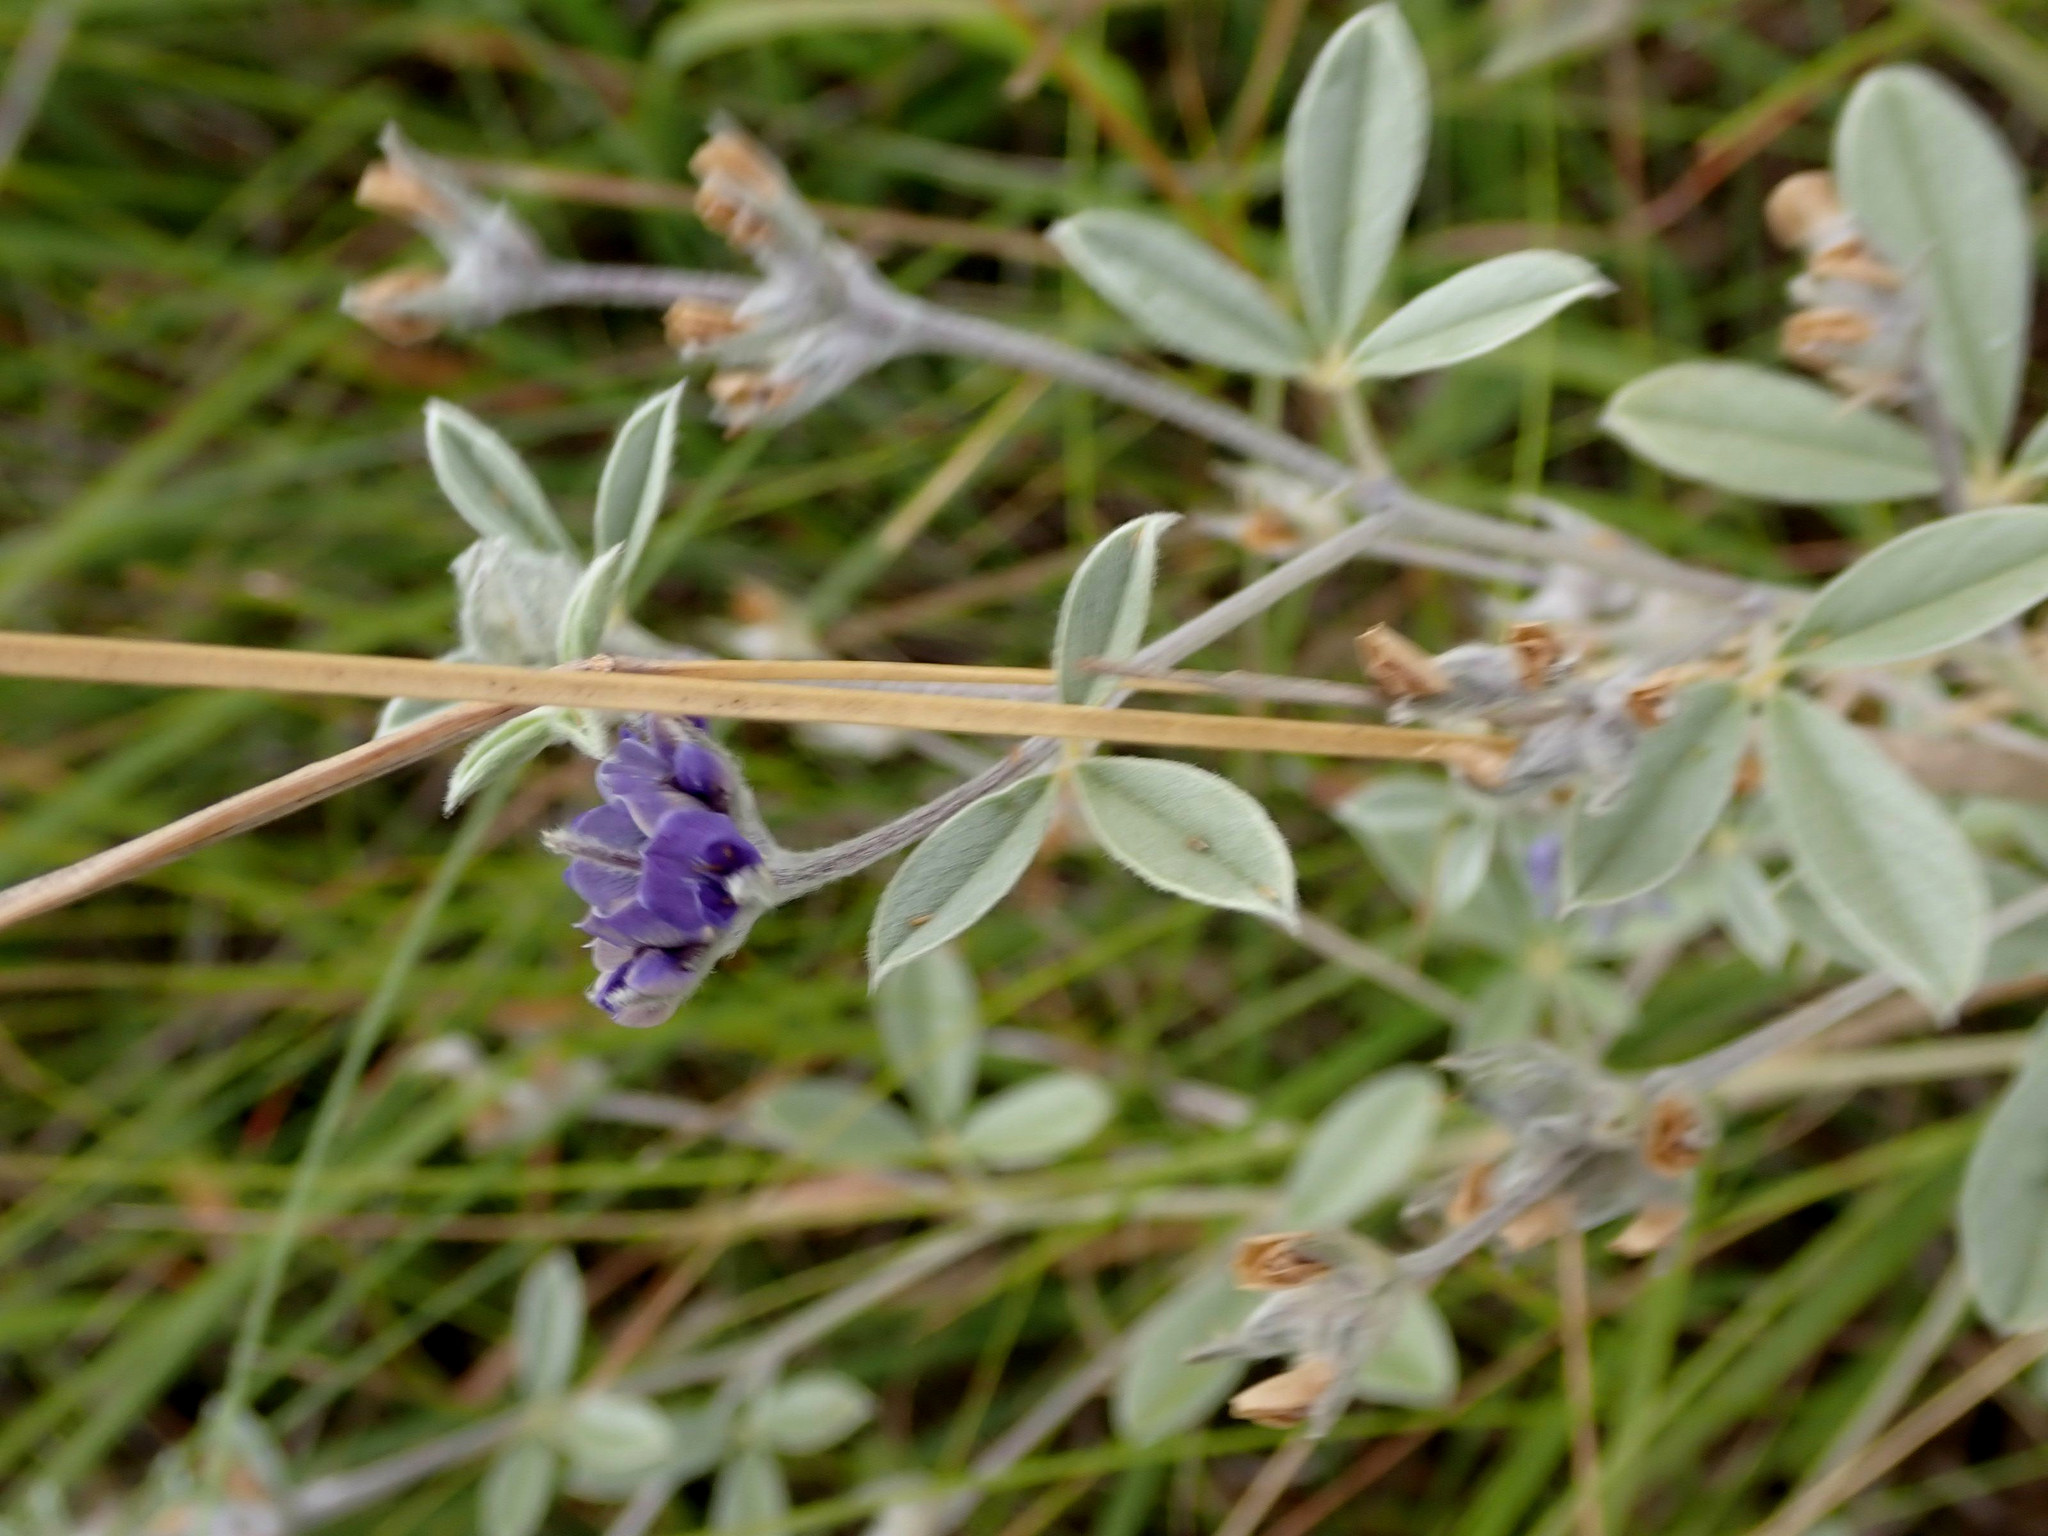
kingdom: Plantae
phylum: Tracheophyta
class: Magnoliopsida
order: Fabales
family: Fabaceae
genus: Pediomelum
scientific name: Pediomelum argophyllum
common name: Silver-leaved indian breadroot
